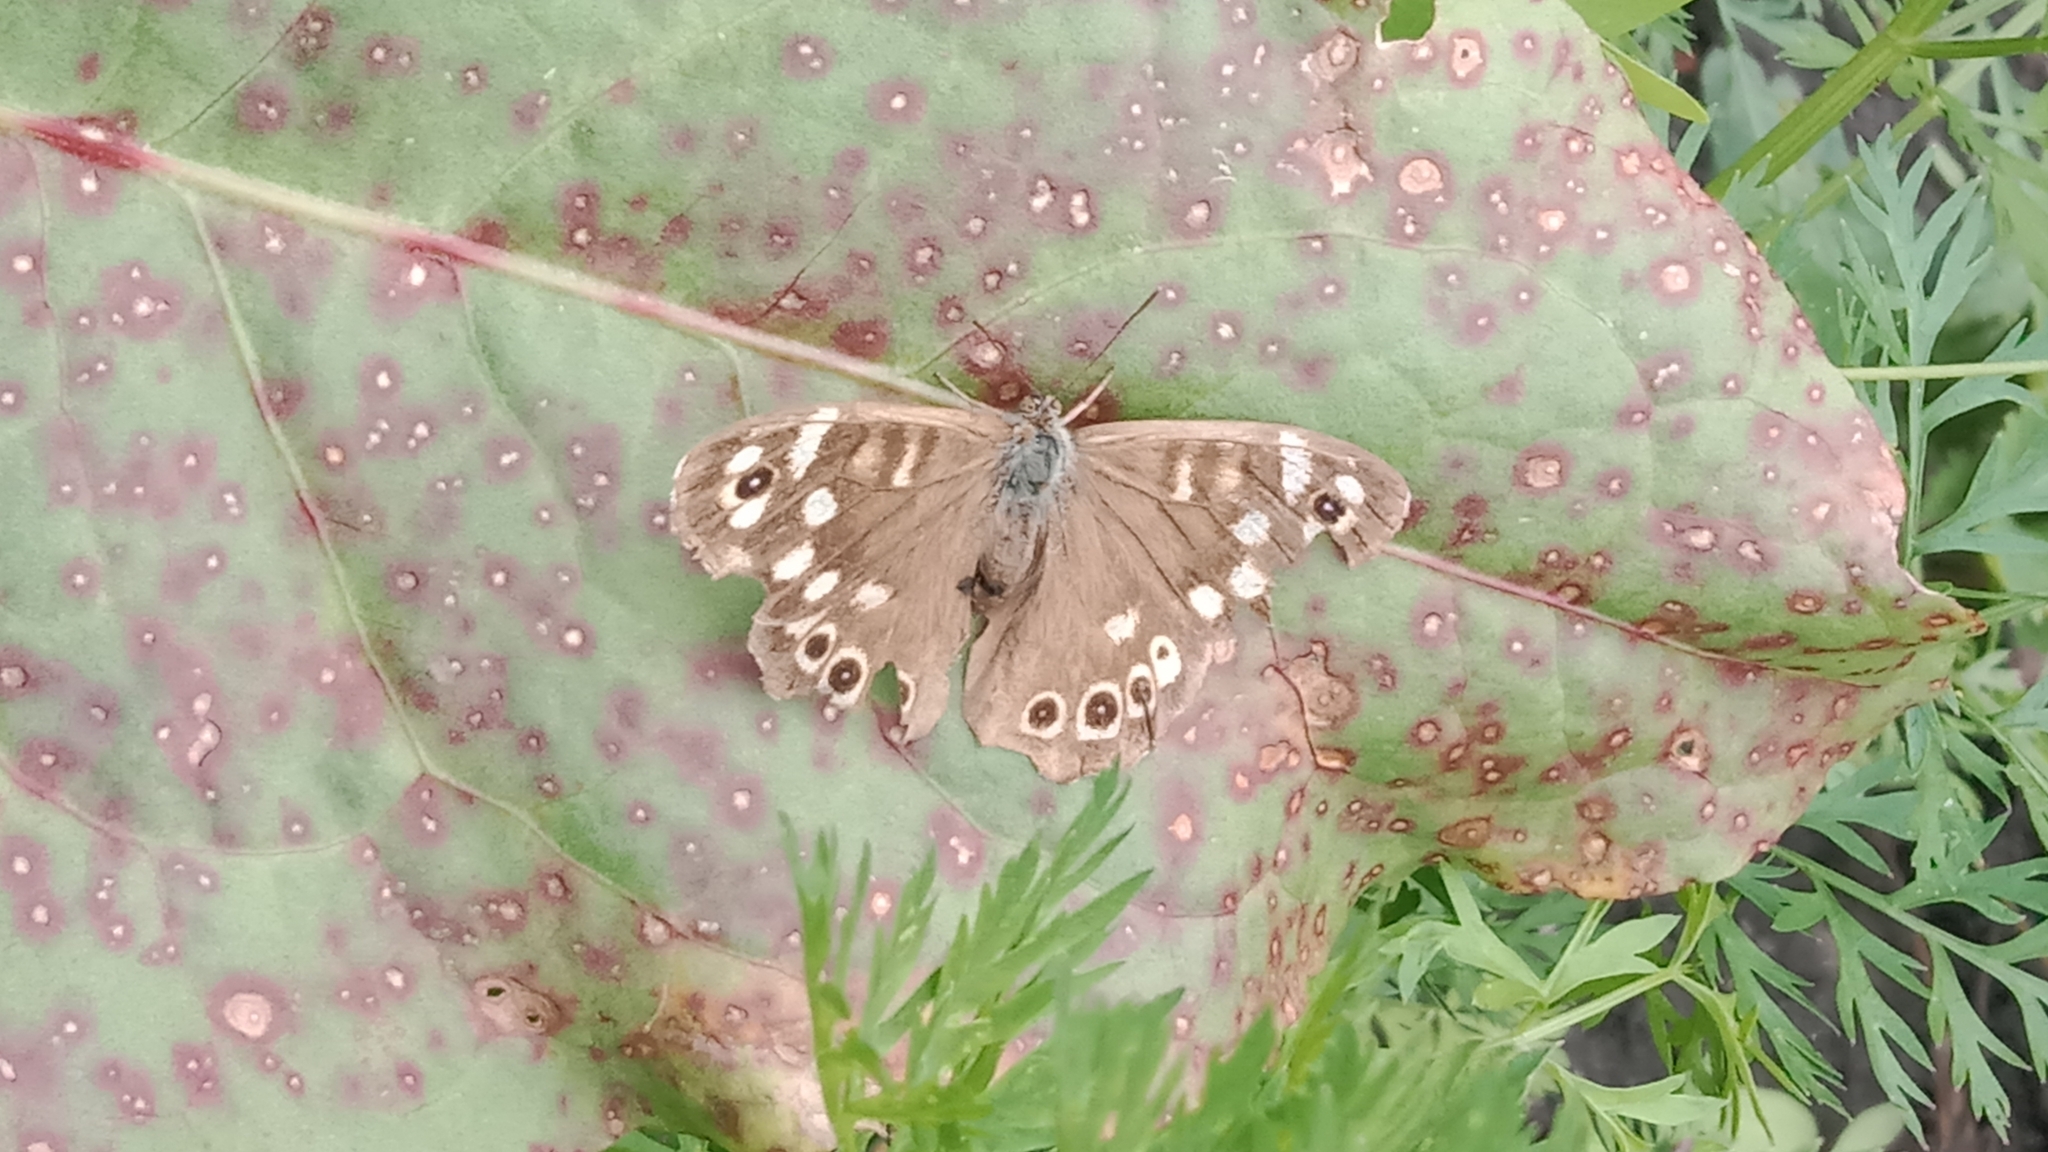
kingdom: Animalia
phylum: Arthropoda
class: Insecta
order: Lepidoptera
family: Nymphalidae
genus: Pararge
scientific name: Pararge aegeria
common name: Speckled wood
